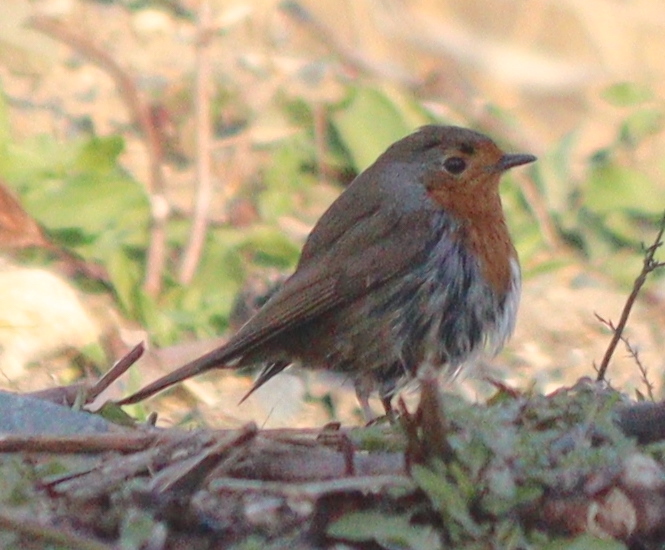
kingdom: Animalia
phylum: Chordata
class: Aves
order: Passeriformes
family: Muscicapidae
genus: Erithacus
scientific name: Erithacus rubecula
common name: European robin
